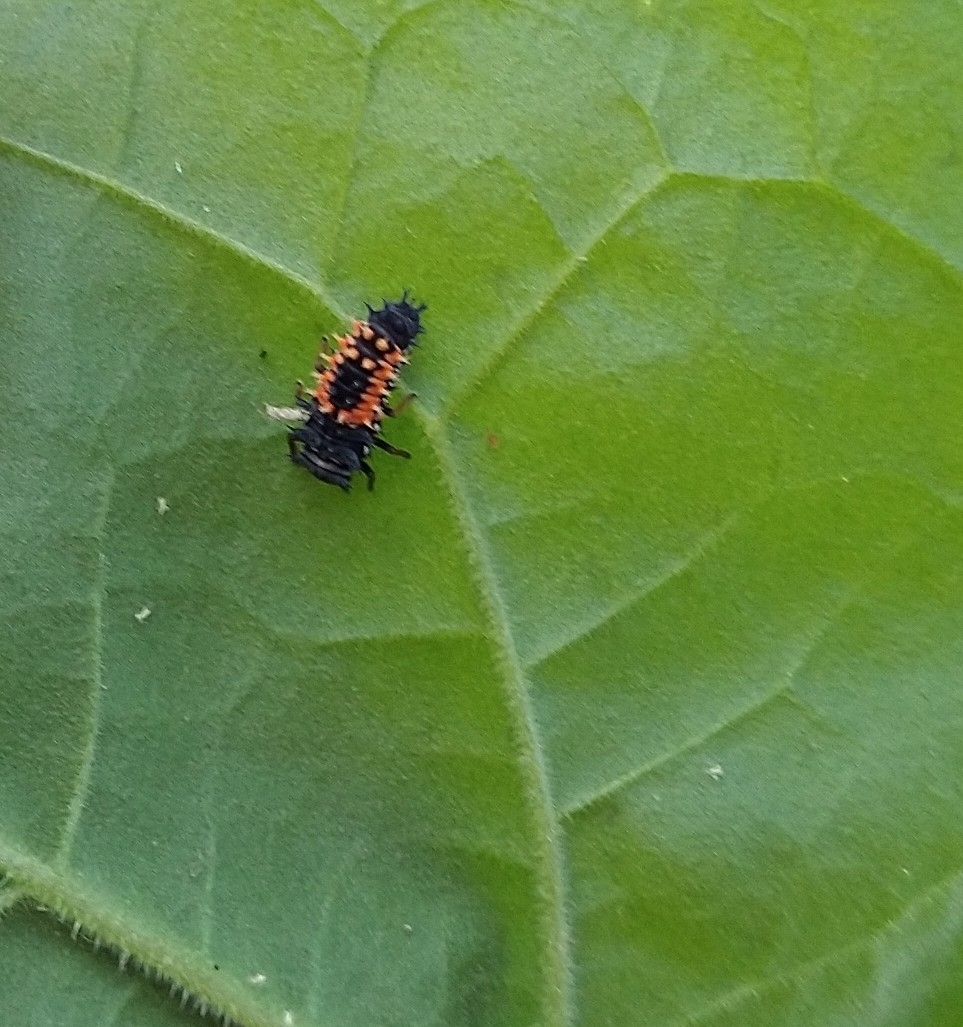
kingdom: Animalia
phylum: Arthropoda
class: Insecta
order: Coleoptera
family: Coccinellidae
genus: Harmonia
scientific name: Harmonia axyridis
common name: Harlequin ladybird
